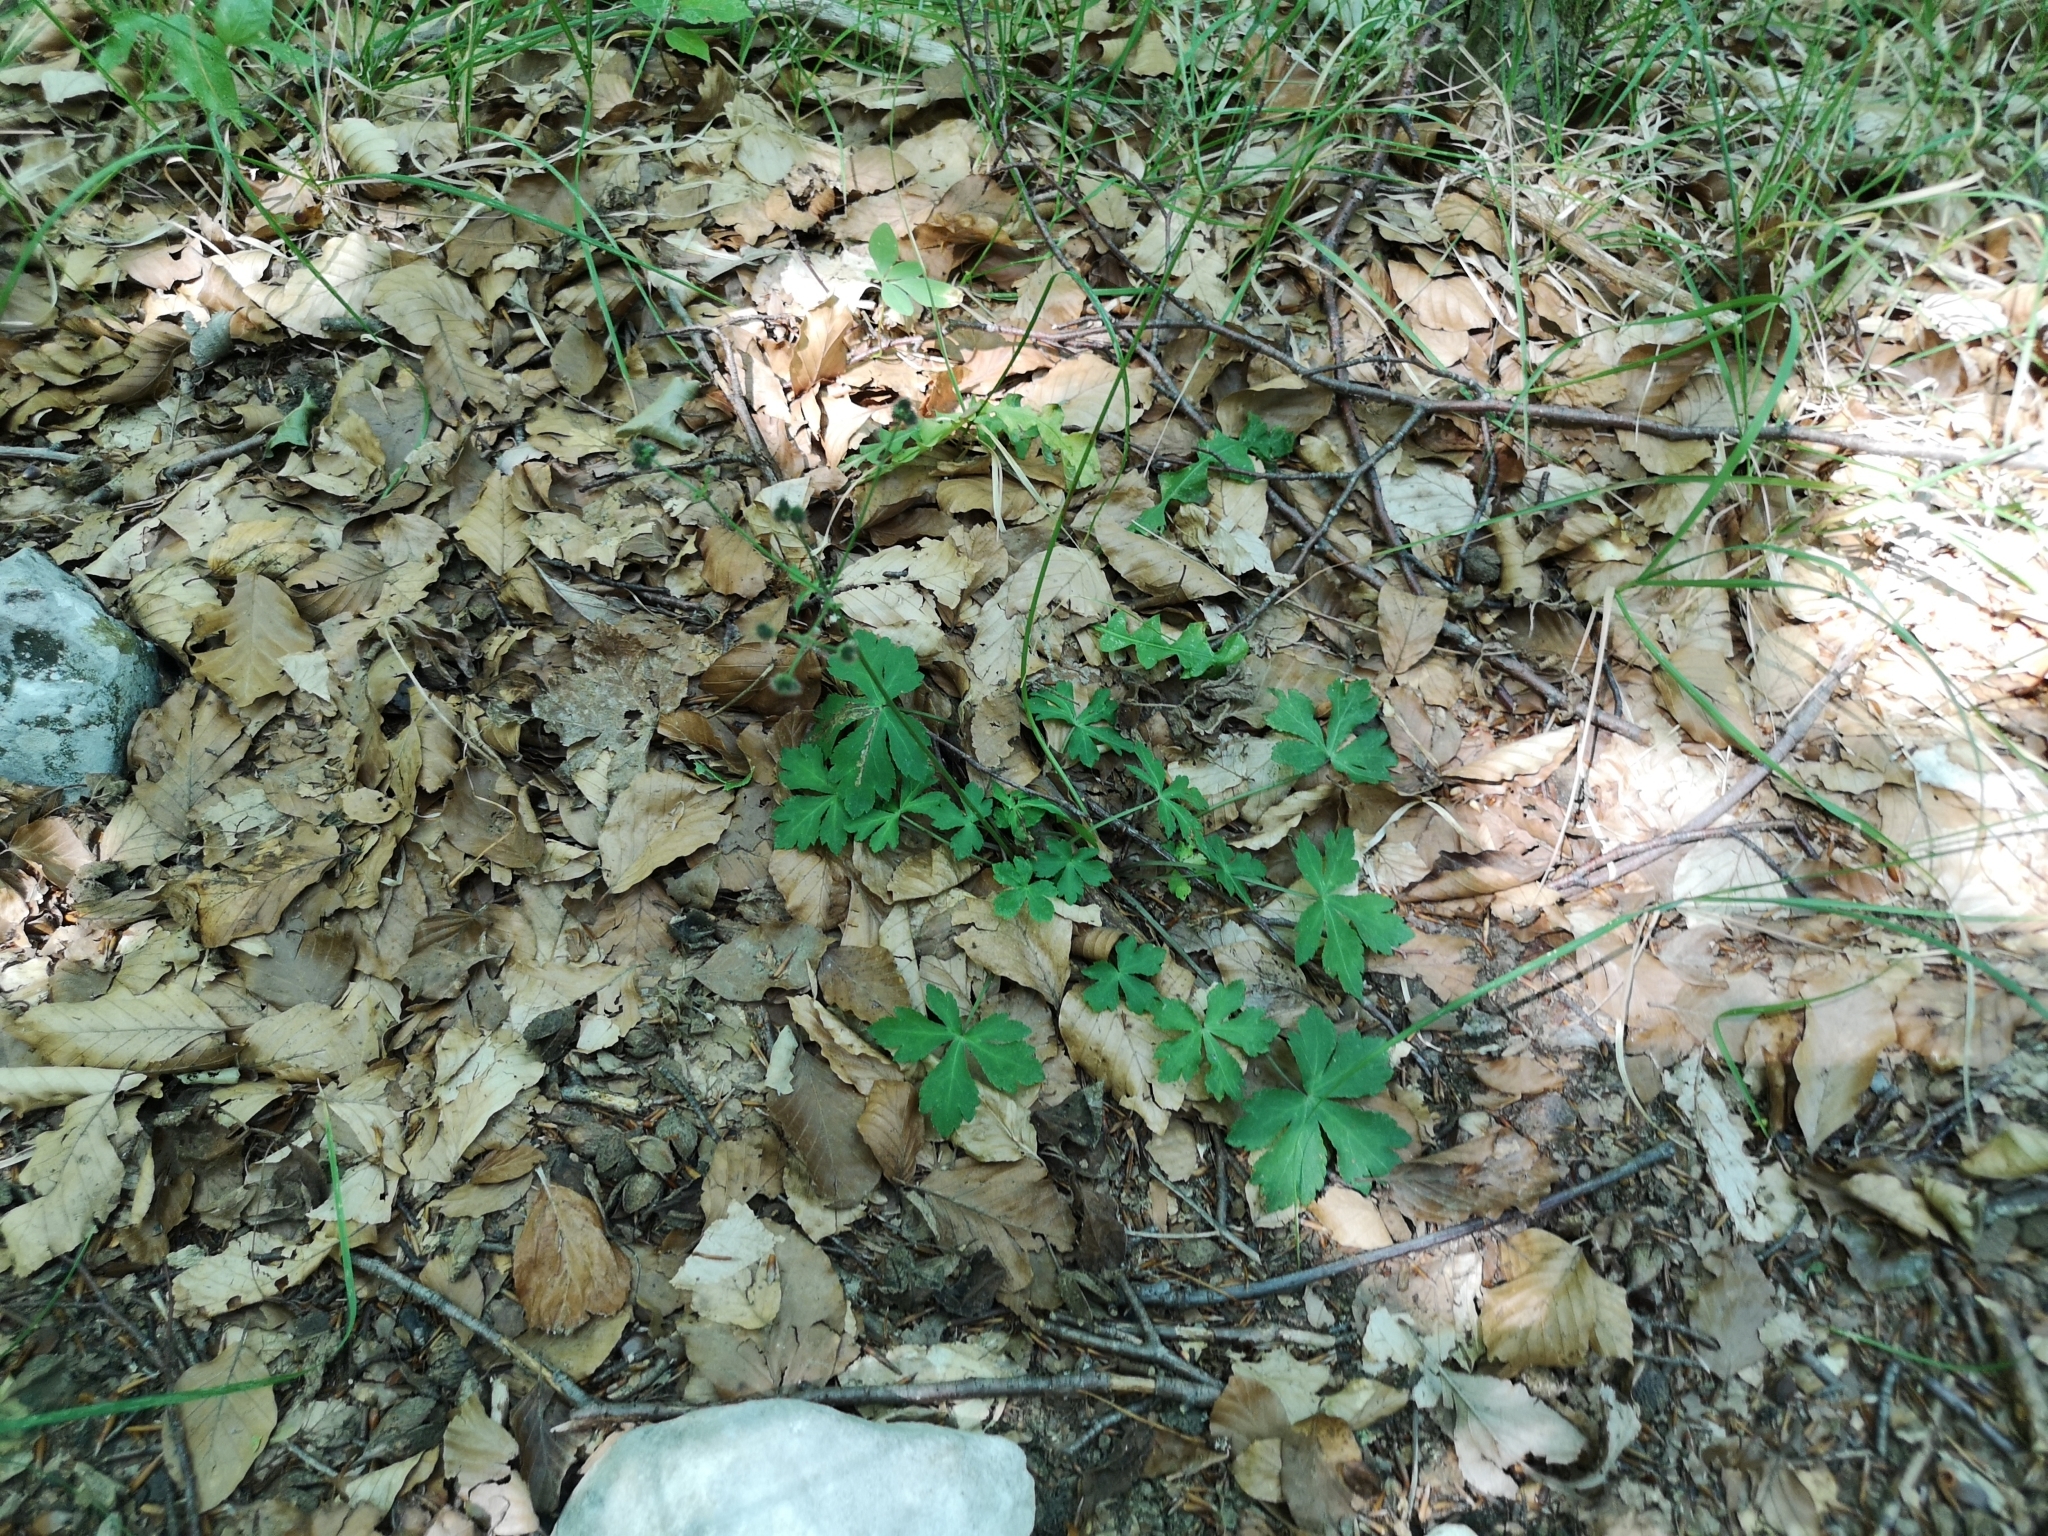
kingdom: Plantae
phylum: Tracheophyta
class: Magnoliopsida
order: Apiales
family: Apiaceae
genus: Sanicula
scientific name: Sanicula europaea
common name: Sanicle
